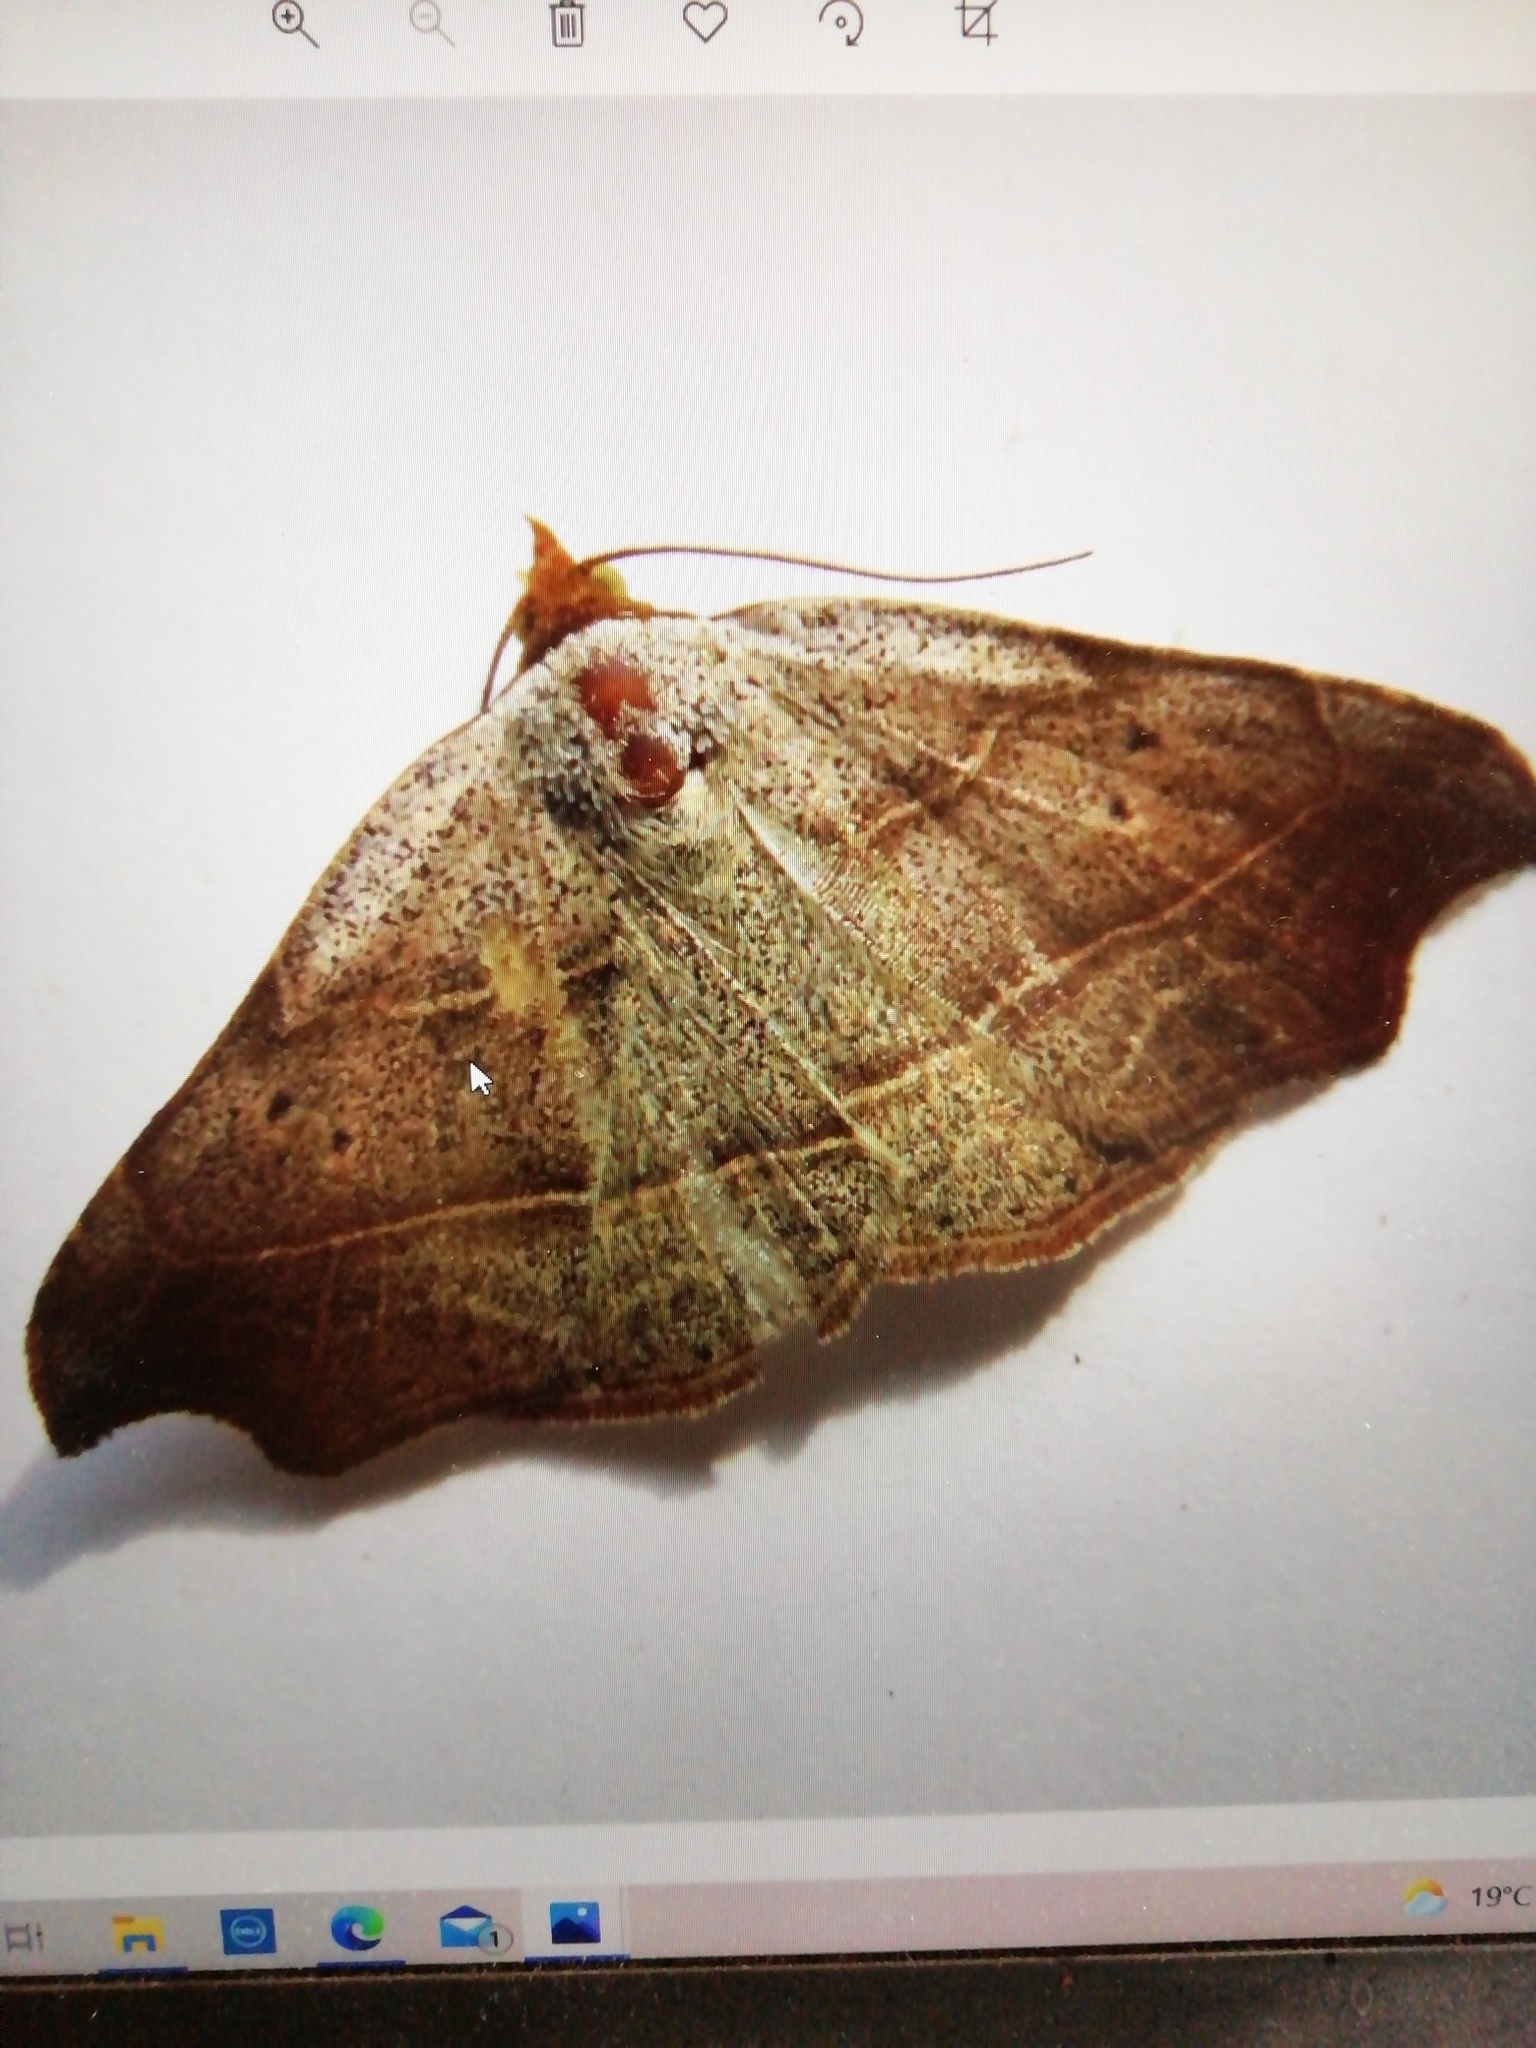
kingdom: Animalia
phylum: Arthropoda
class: Insecta
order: Lepidoptera
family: Erebidae
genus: Laspeyria
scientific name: Laspeyria flexula
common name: Beautiful hook-tip
